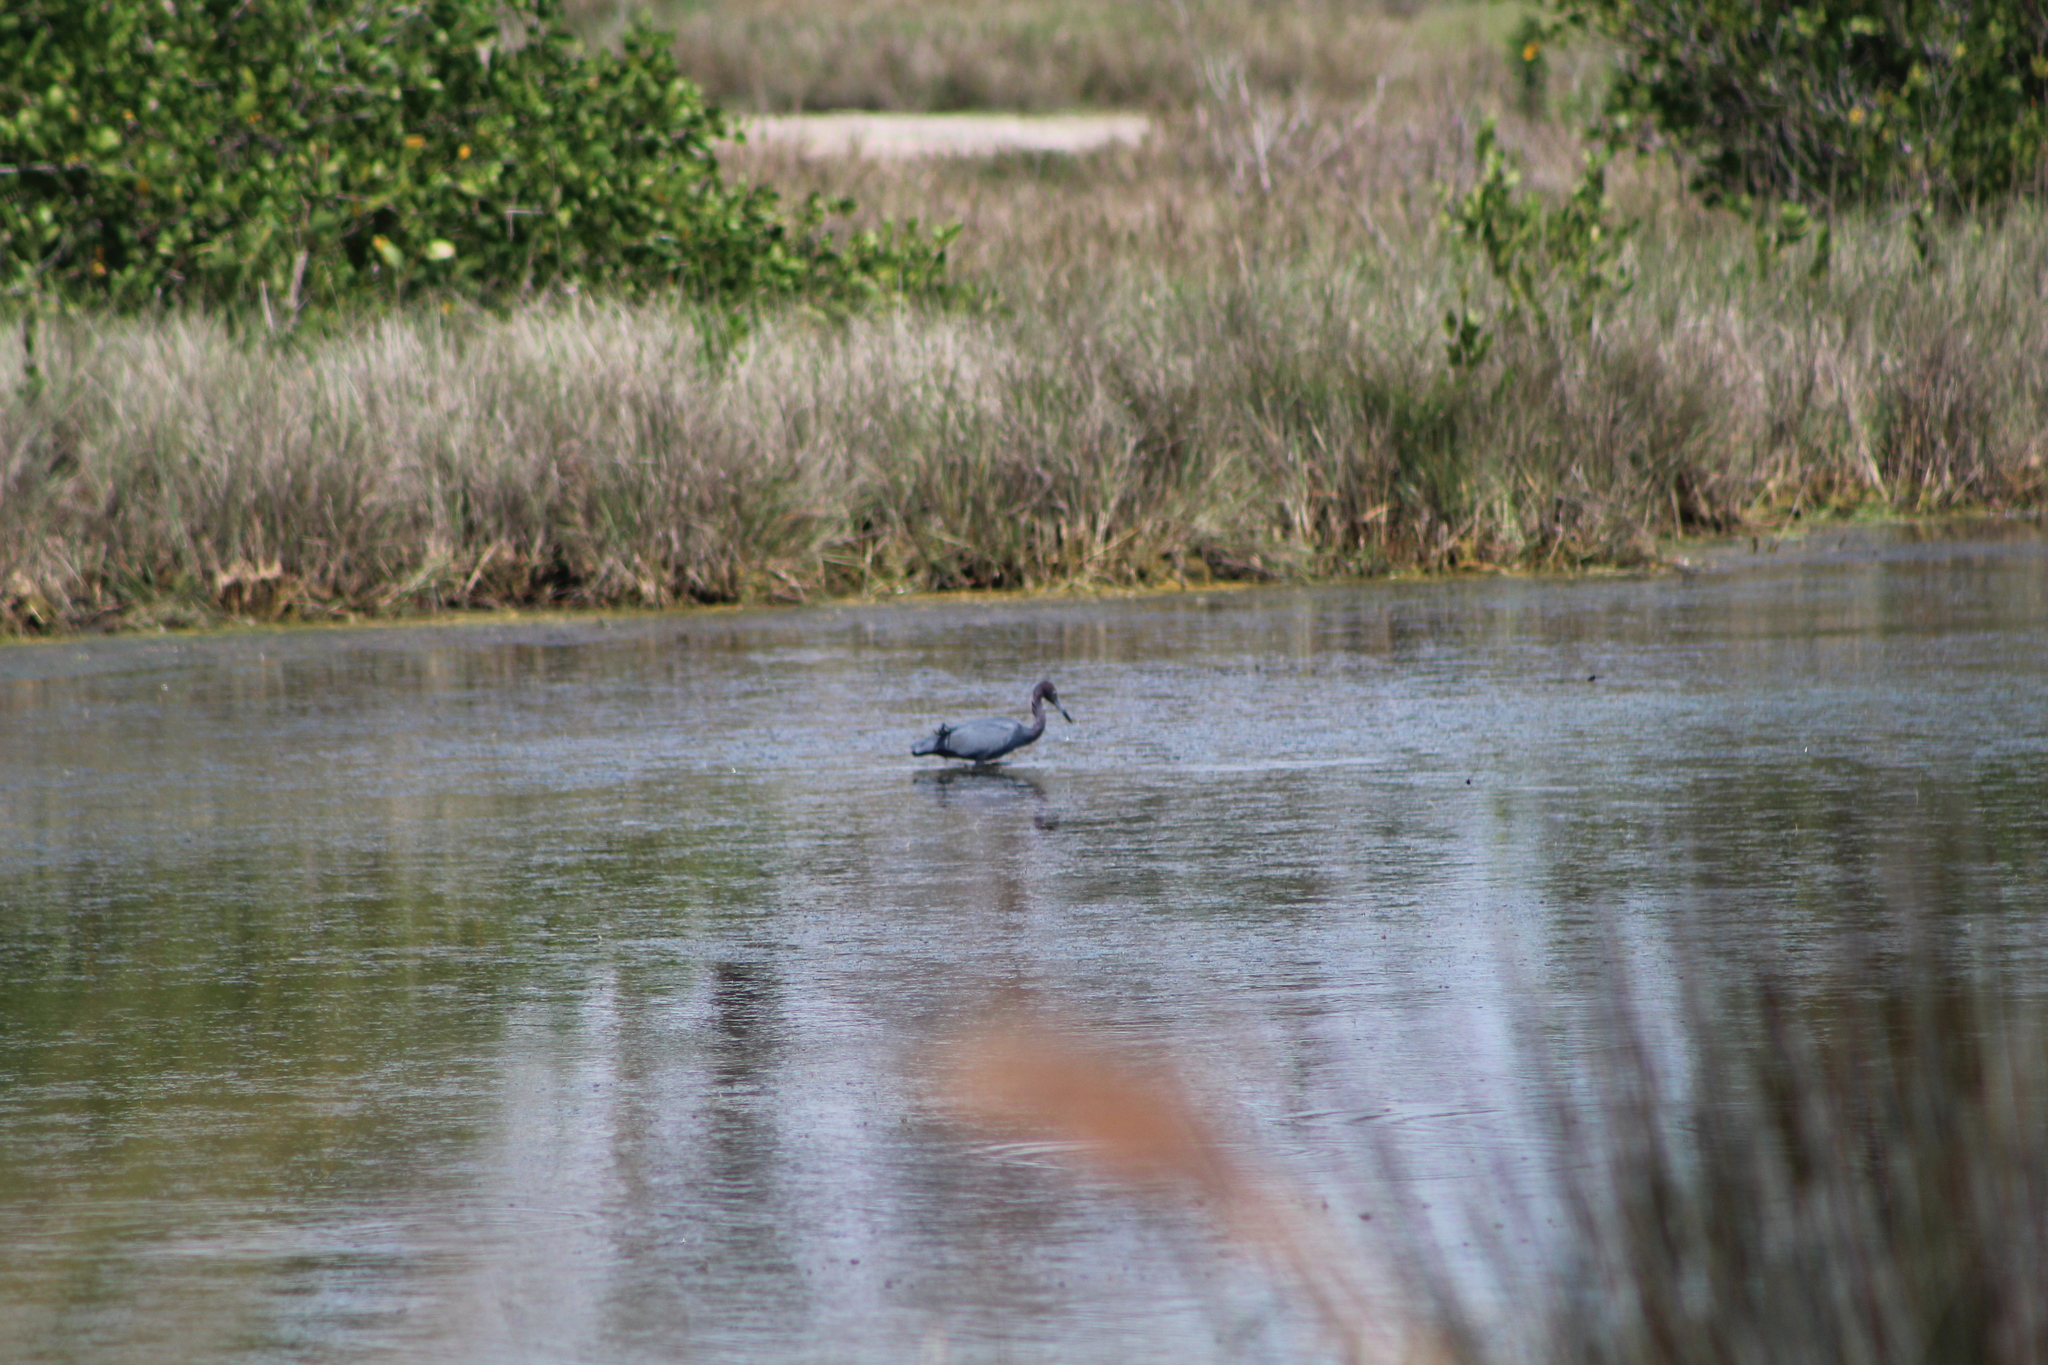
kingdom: Animalia
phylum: Chordata
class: Aves
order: Pelecaniformes
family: Ardeidae
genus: Egretta
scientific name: Egretta caerulea
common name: Little blue heron
